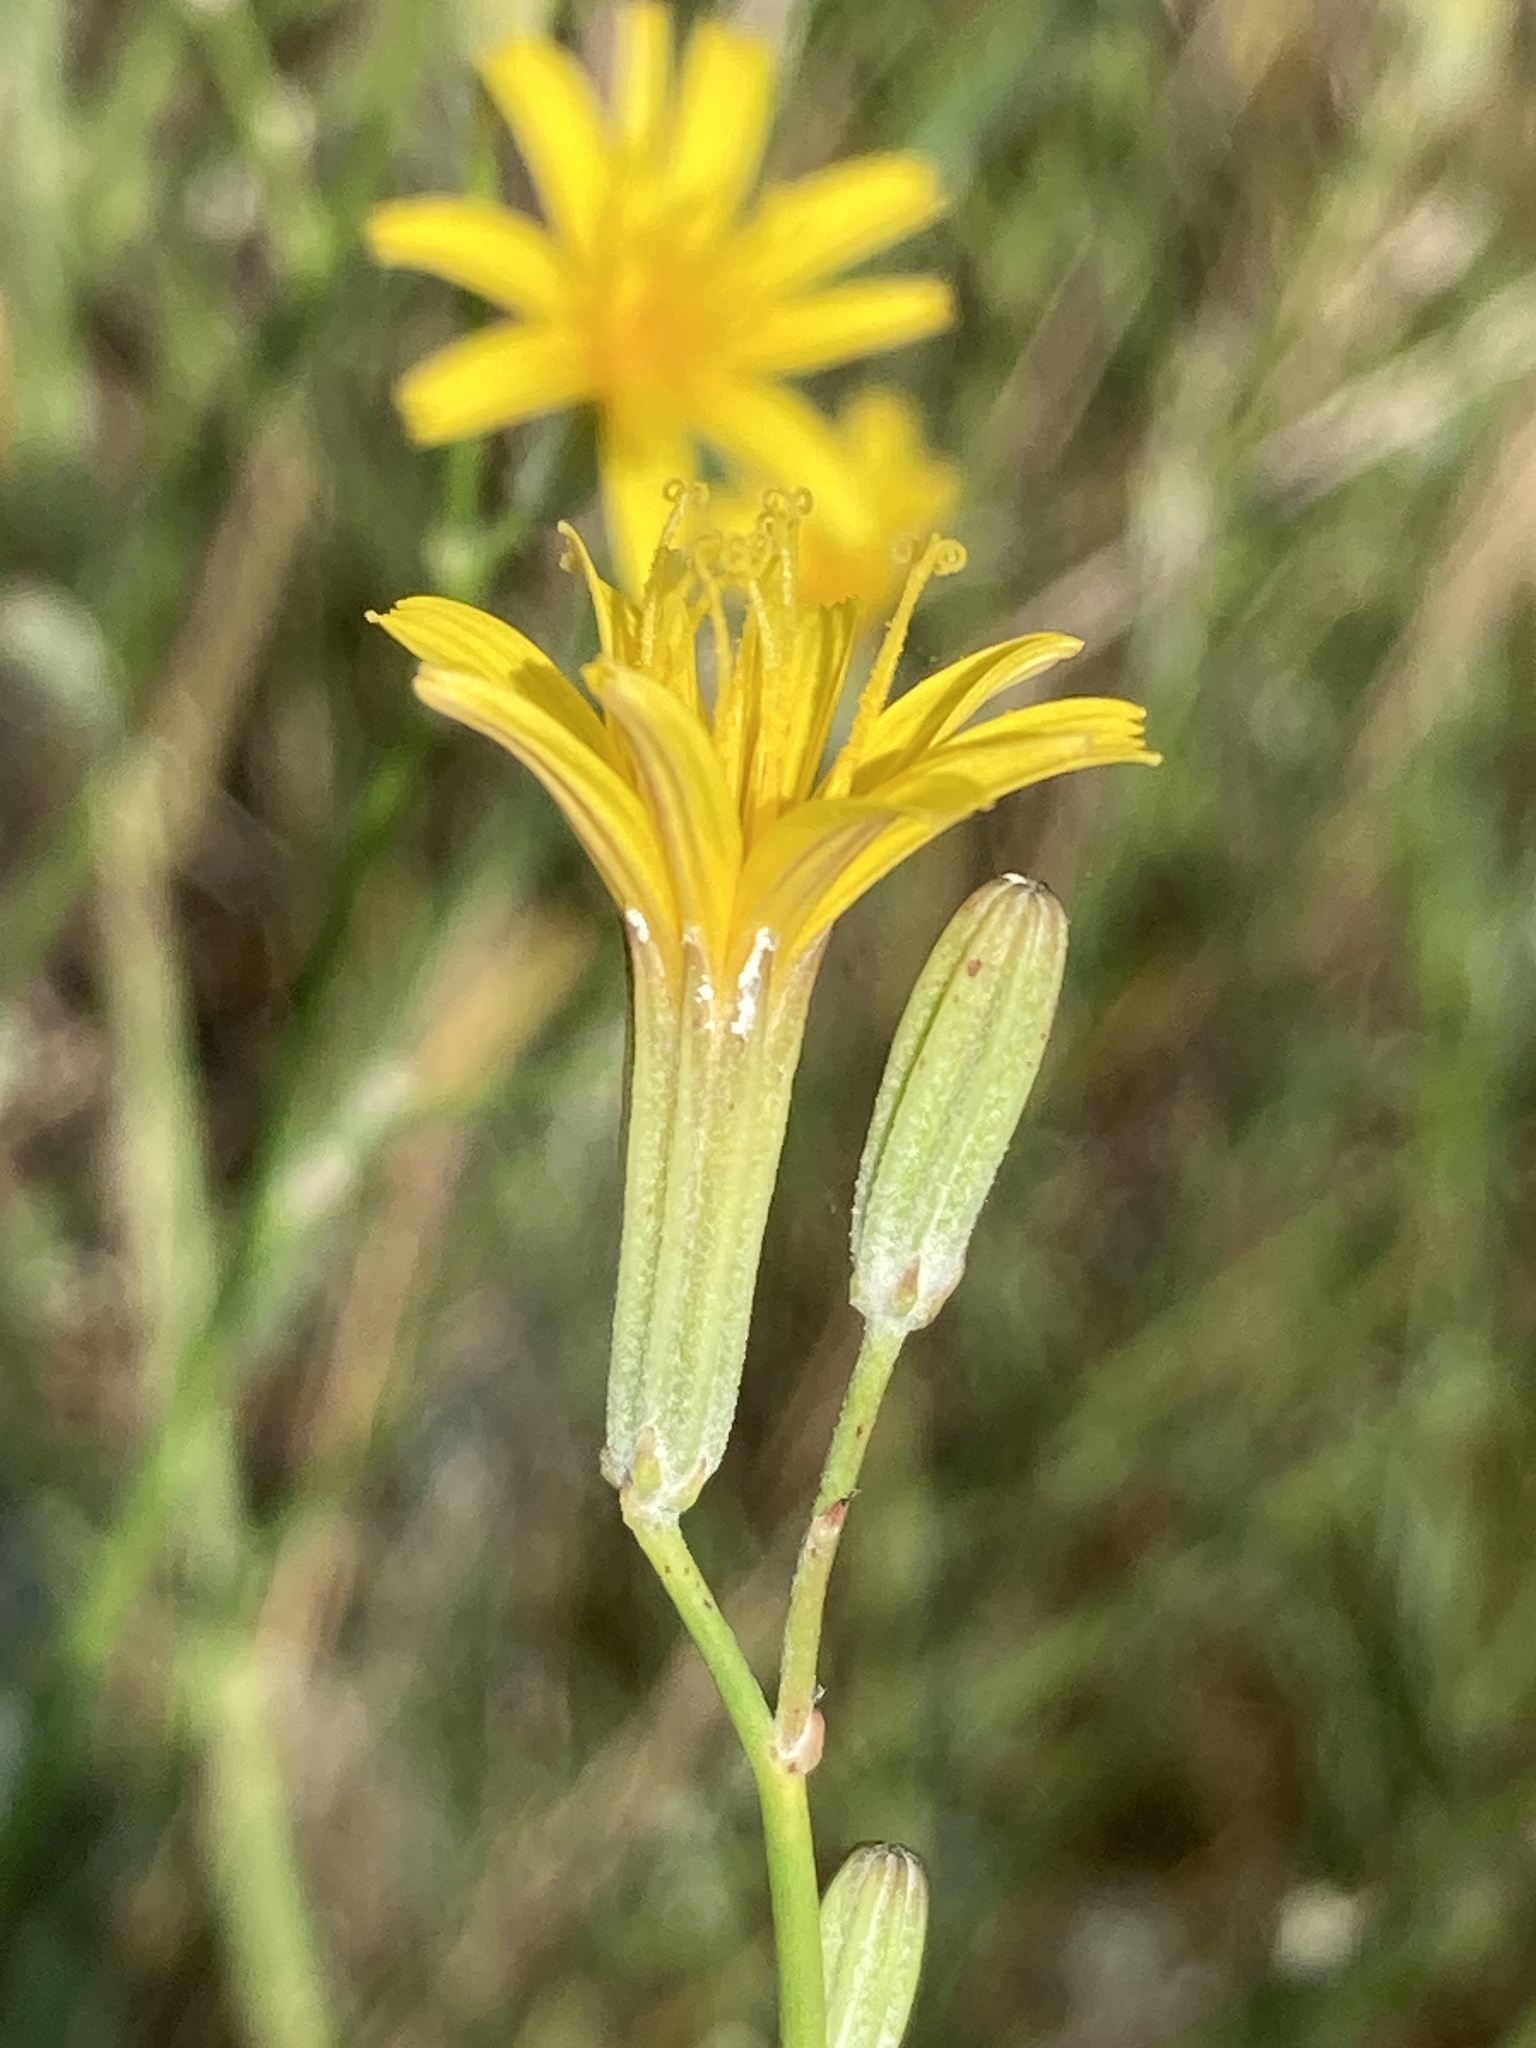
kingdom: Plantae
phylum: Tracheophyta
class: Magnoliopsida
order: Asterales
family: Asteraceae
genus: Chondrilla
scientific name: Chondrilla juncea
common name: Skeleton weed
